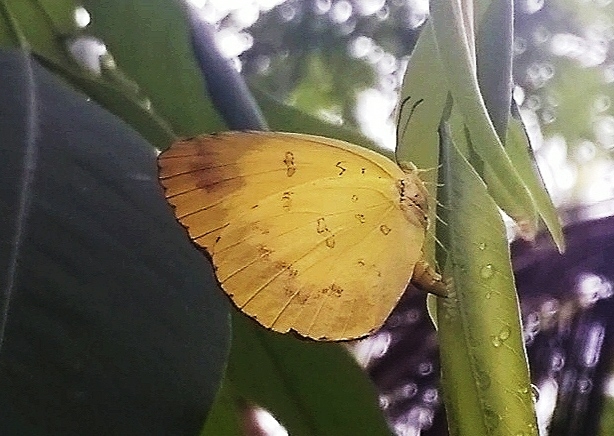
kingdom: Animalia
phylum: Arthropoda
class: Insecta
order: Lepidoptera
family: Pieridae
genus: Eurema
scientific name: Eurema blanda
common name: Three-spot grass yellow
